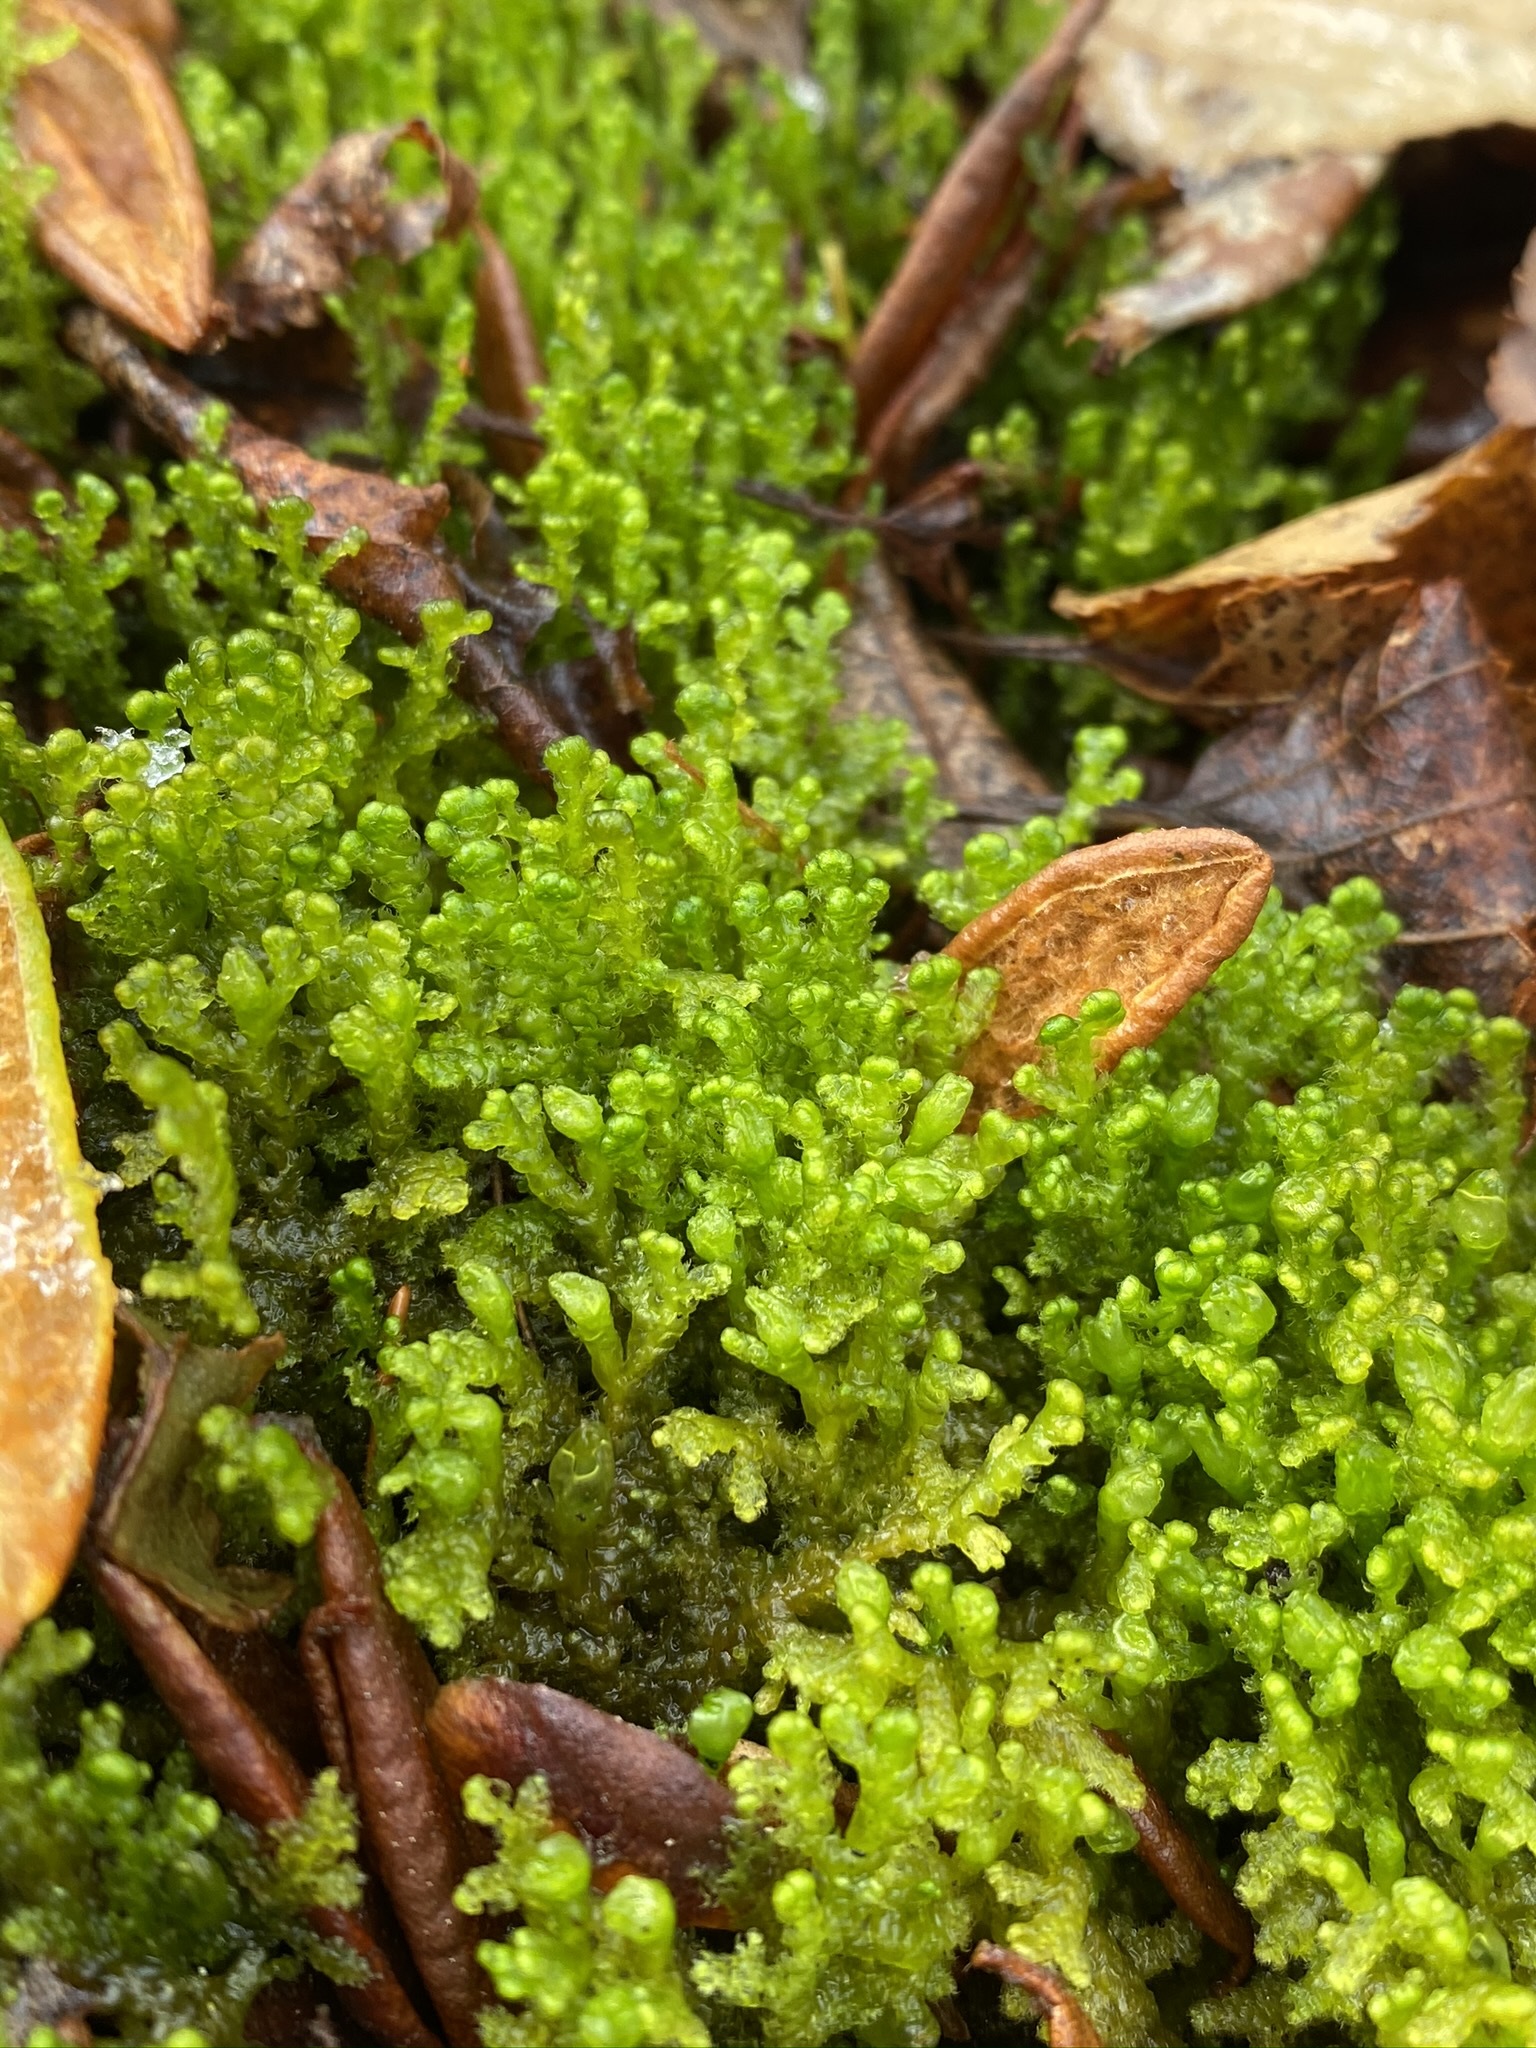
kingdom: Plantae
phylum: Marchantiophyta
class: Jungermanniopsida
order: Ptilidiales
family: Ptilidiaceae
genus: Ptilidium
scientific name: Ptilidium ciliare
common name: Ciliate fringewort
